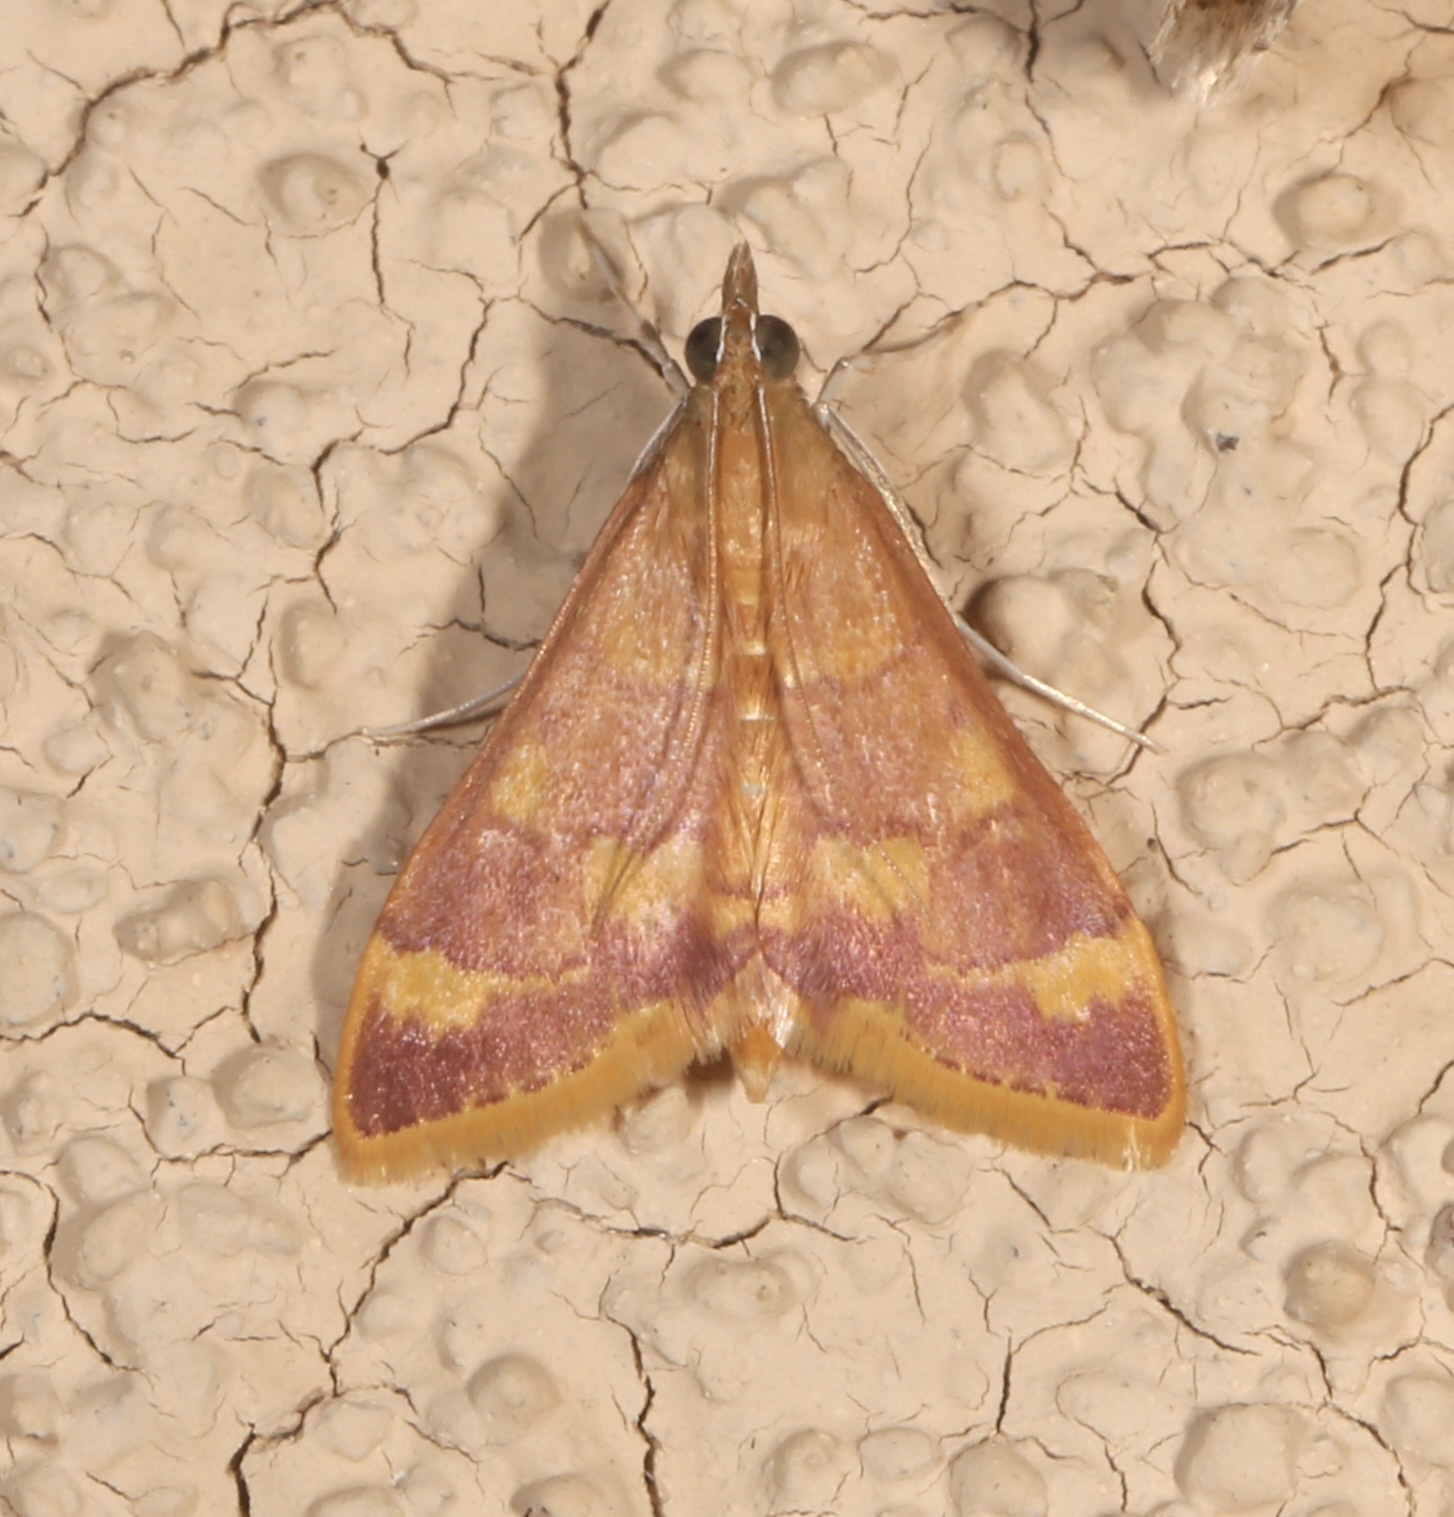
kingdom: Animalia
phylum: Arthropoda
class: Insecta
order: Lepidoptera
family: Crambidae
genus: Pyrausta
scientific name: Pyrausta pseudonythesalis
